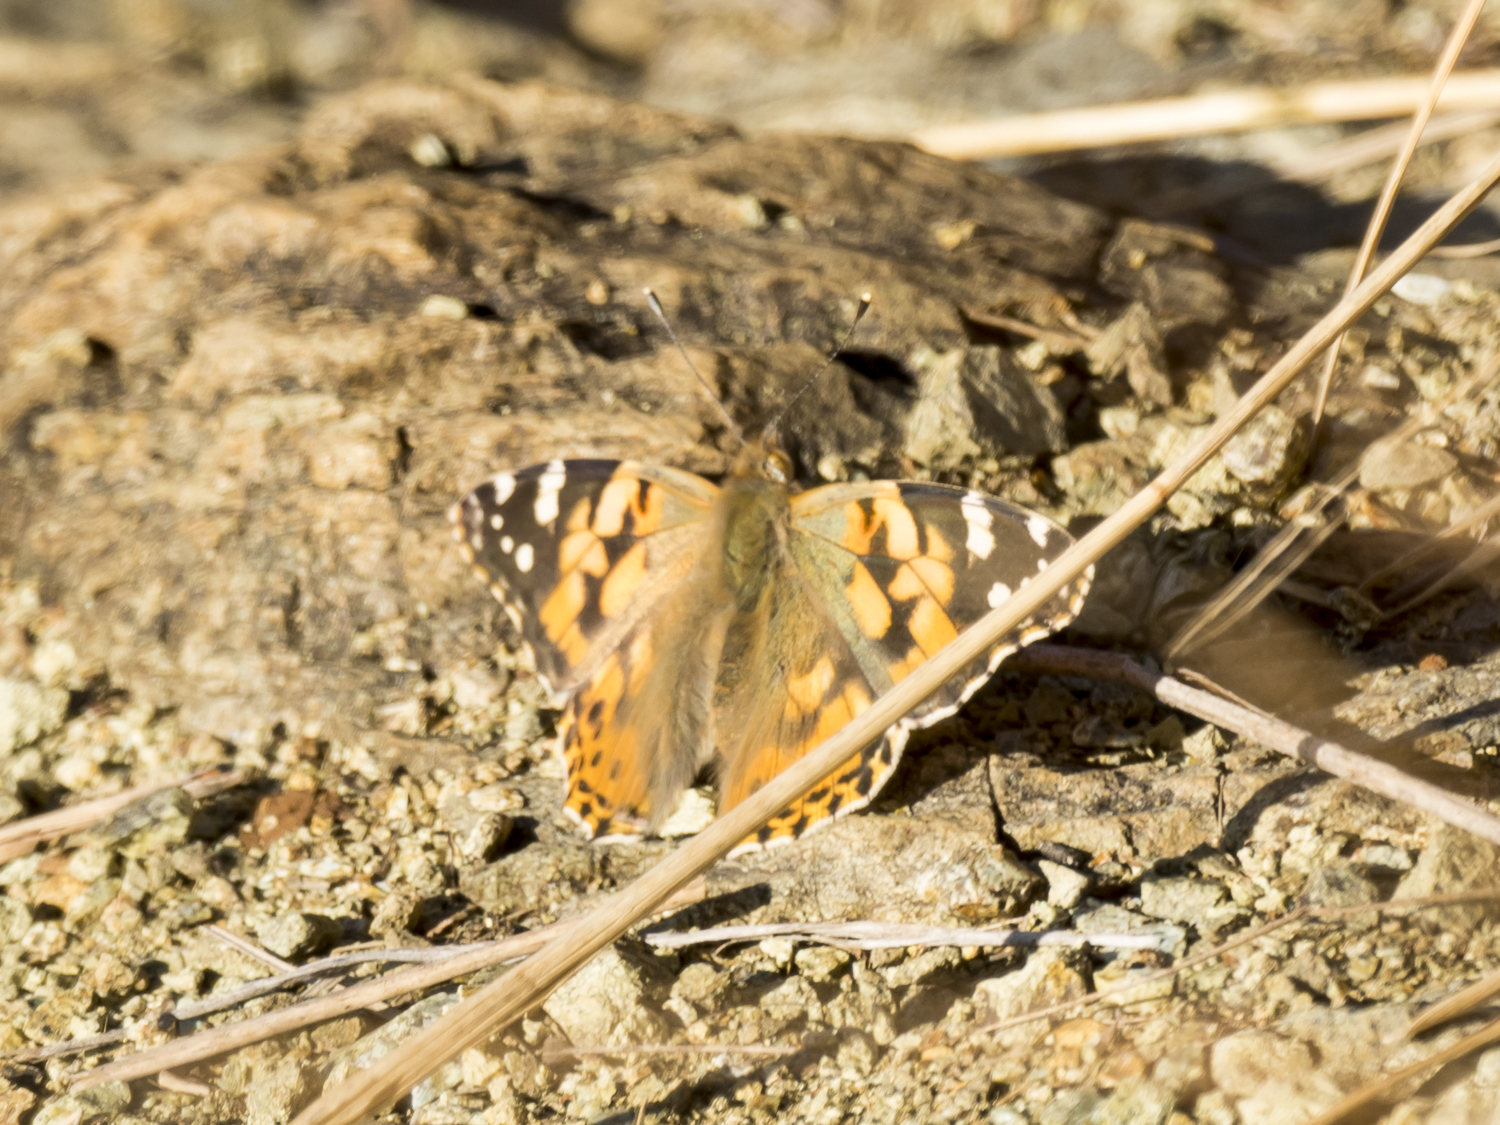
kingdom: Animalia
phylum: Arthropoda
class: Insecta
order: Lepidoptera
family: Nymphalidae
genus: Vanessa
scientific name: Vanessa cardui
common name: Painted lady
